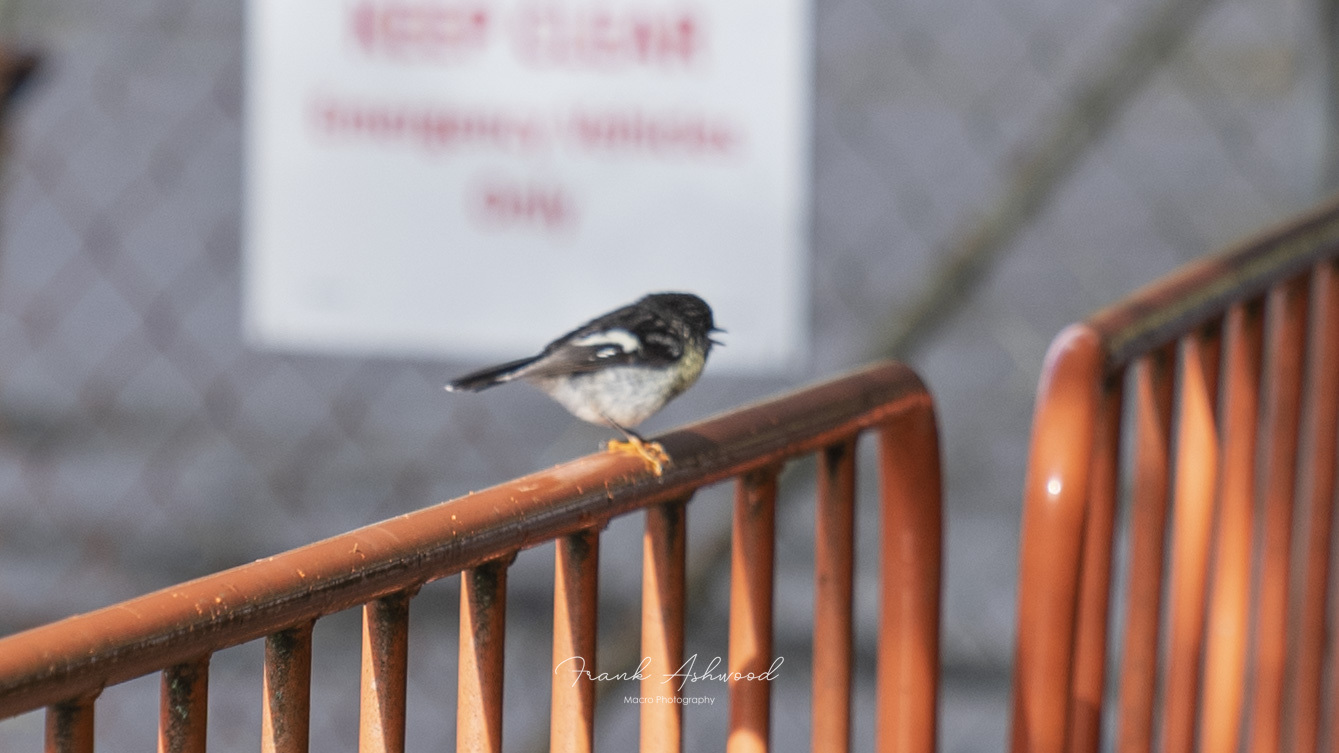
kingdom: Animalia
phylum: Chordata
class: Aves
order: Passeriformes
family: Petroicidae
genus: Petroica
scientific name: Petroica macrocephala
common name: Tomtit
